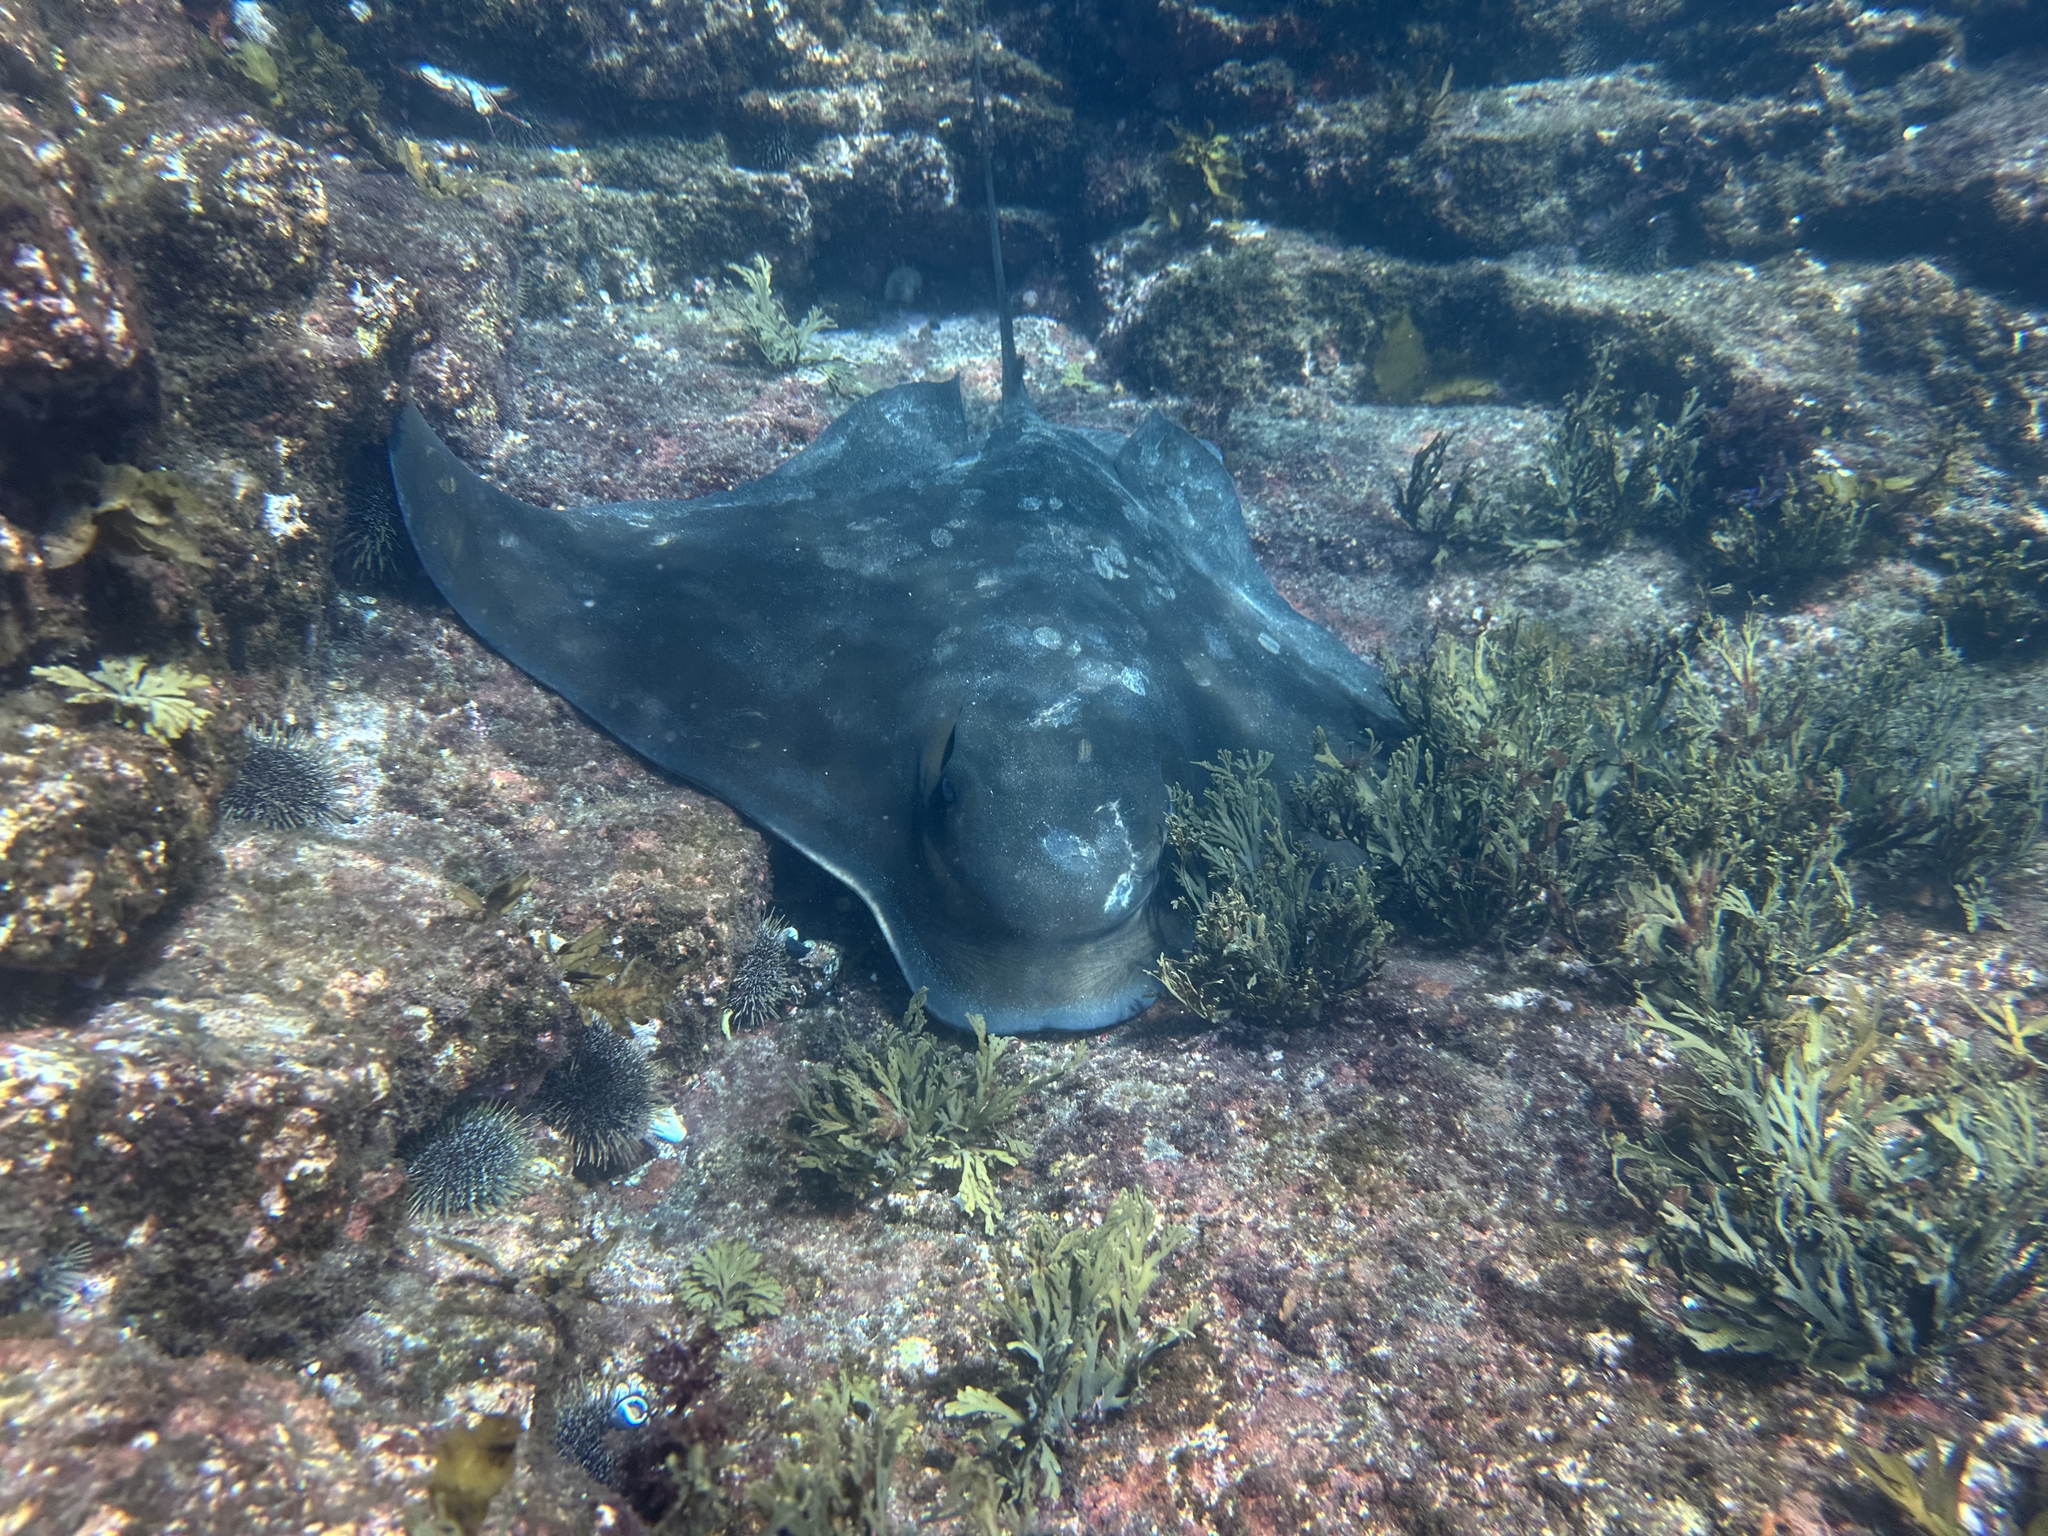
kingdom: Animalia
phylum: Chordata
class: Elasmobranchii
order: Myliobatiformes
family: Myliobatidae
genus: Myliobatis
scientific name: Myliobatis tenuicaudatus
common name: Eagle ray
